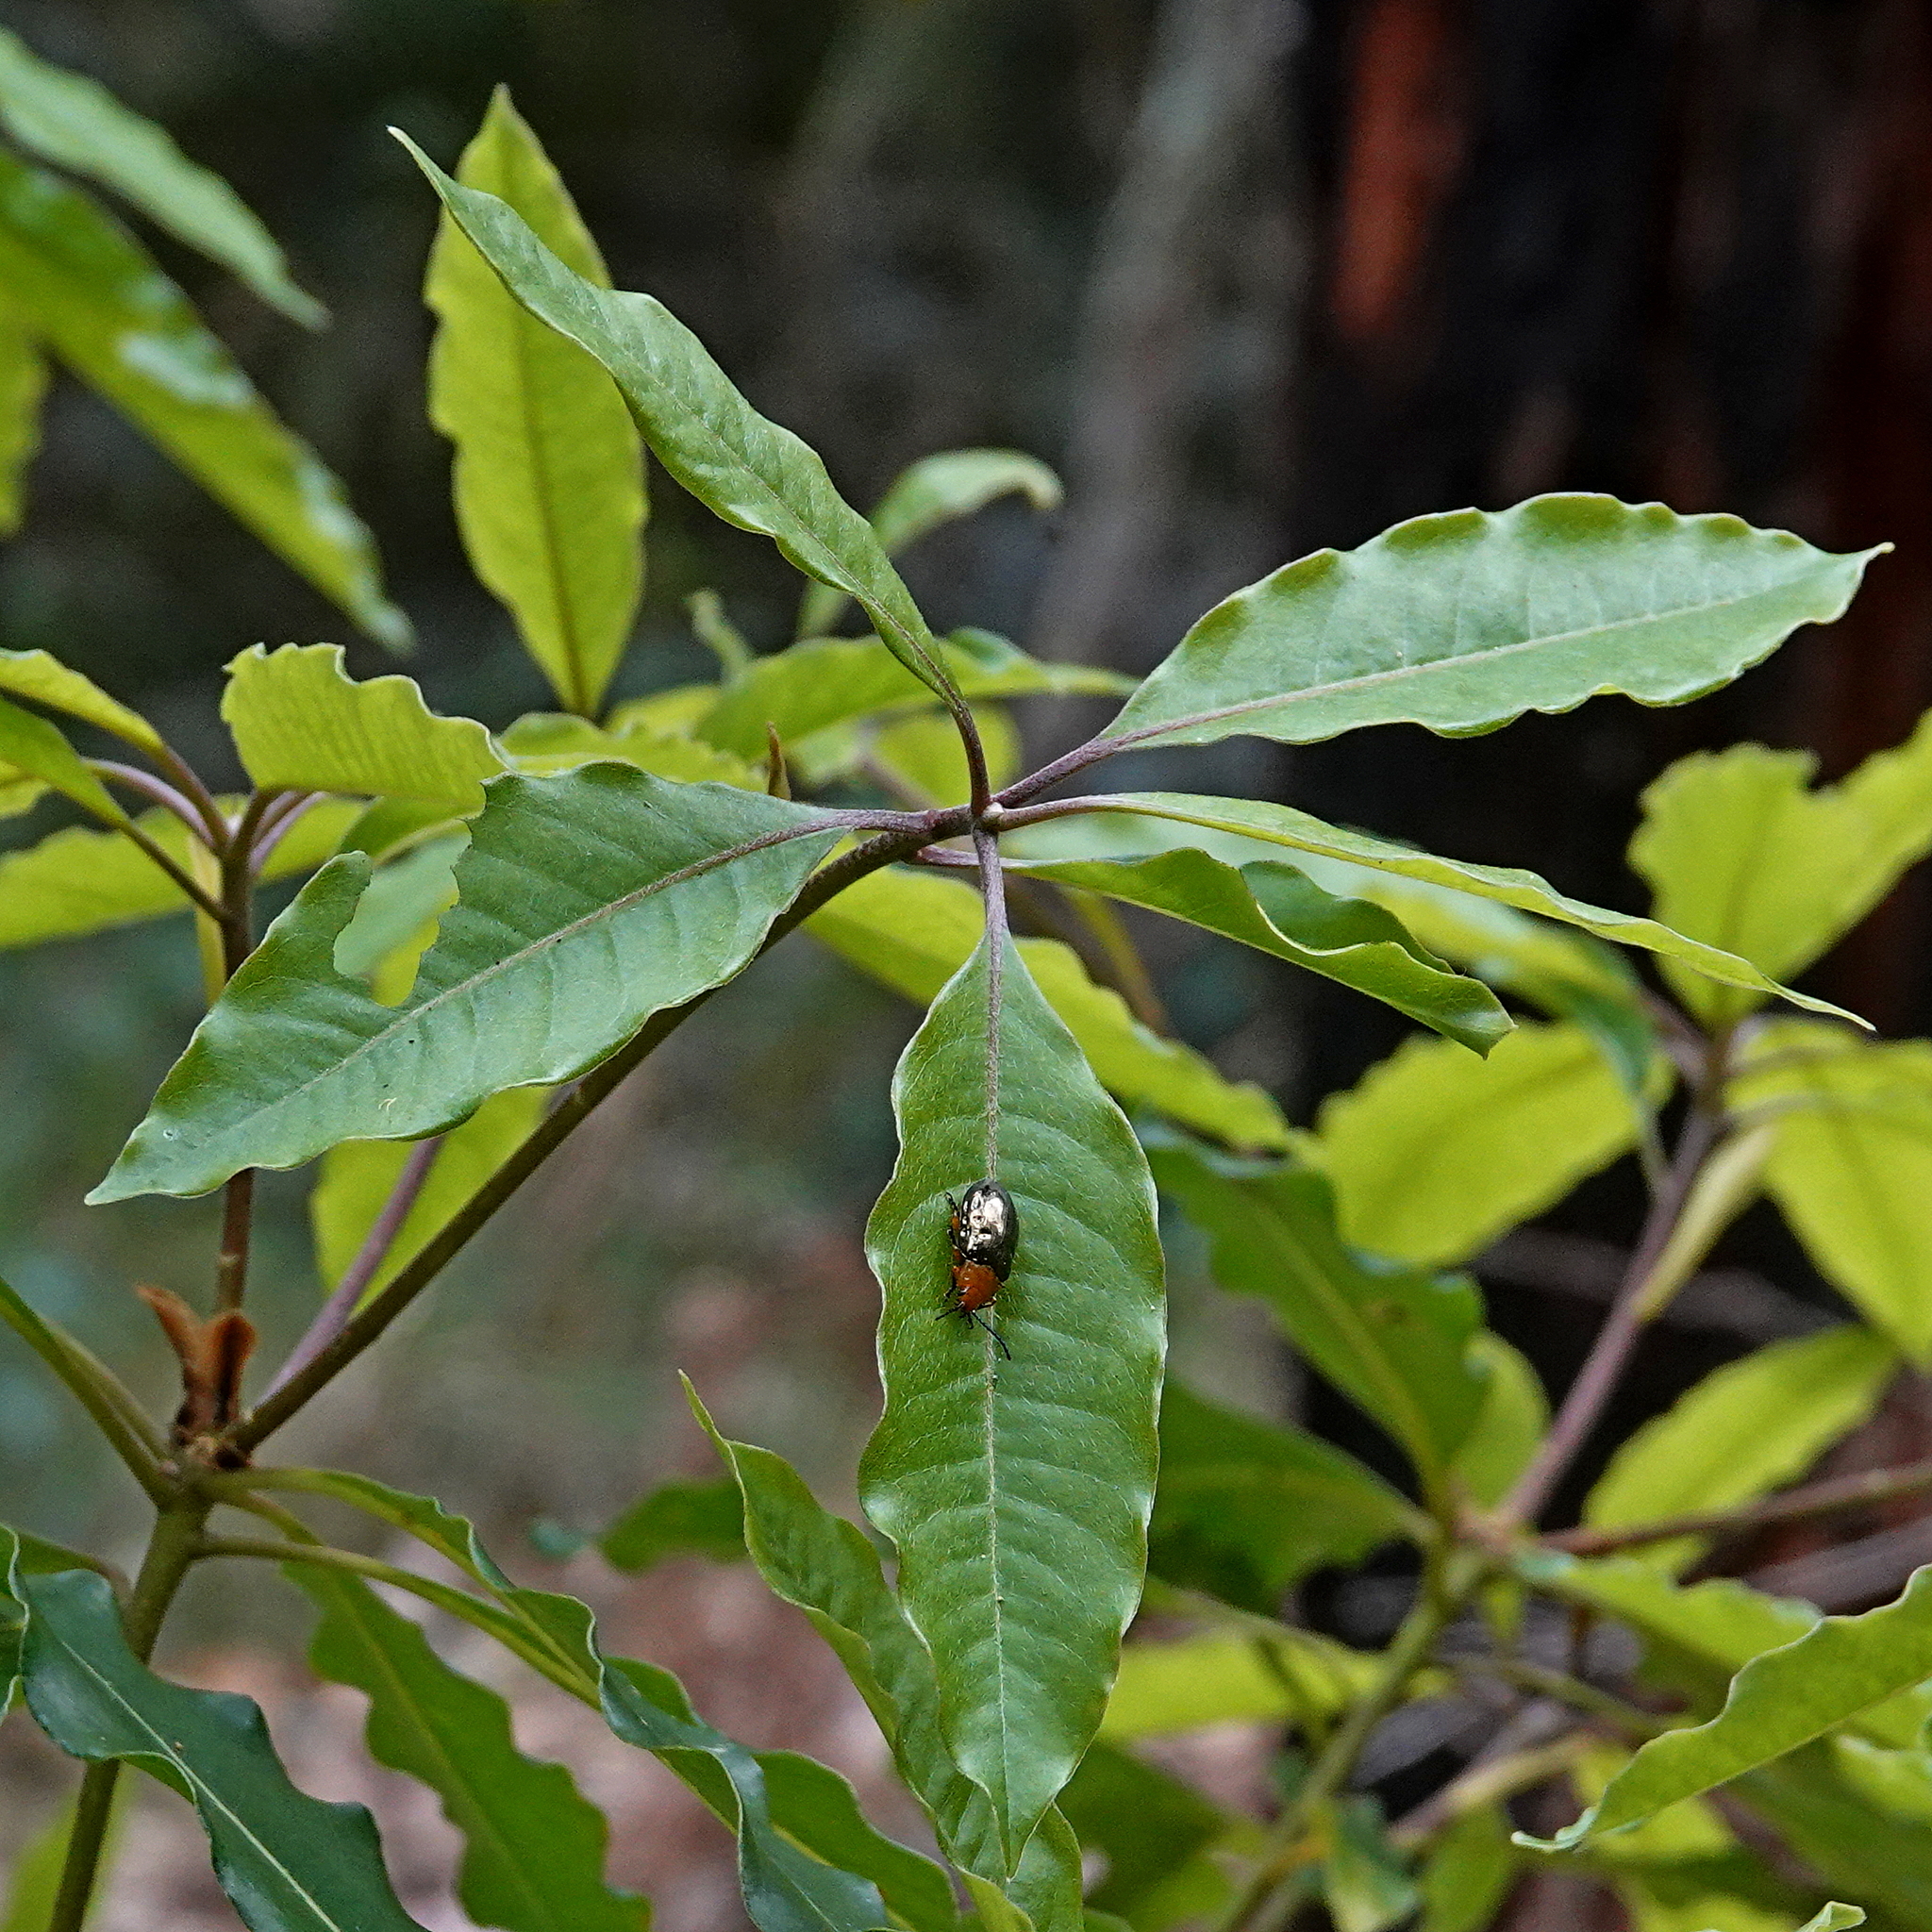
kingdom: Animalia
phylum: Arthropoda
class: Insecta
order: Coleoptera
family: Chrysomelidae
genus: Lamprolina
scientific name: Lamprolina
